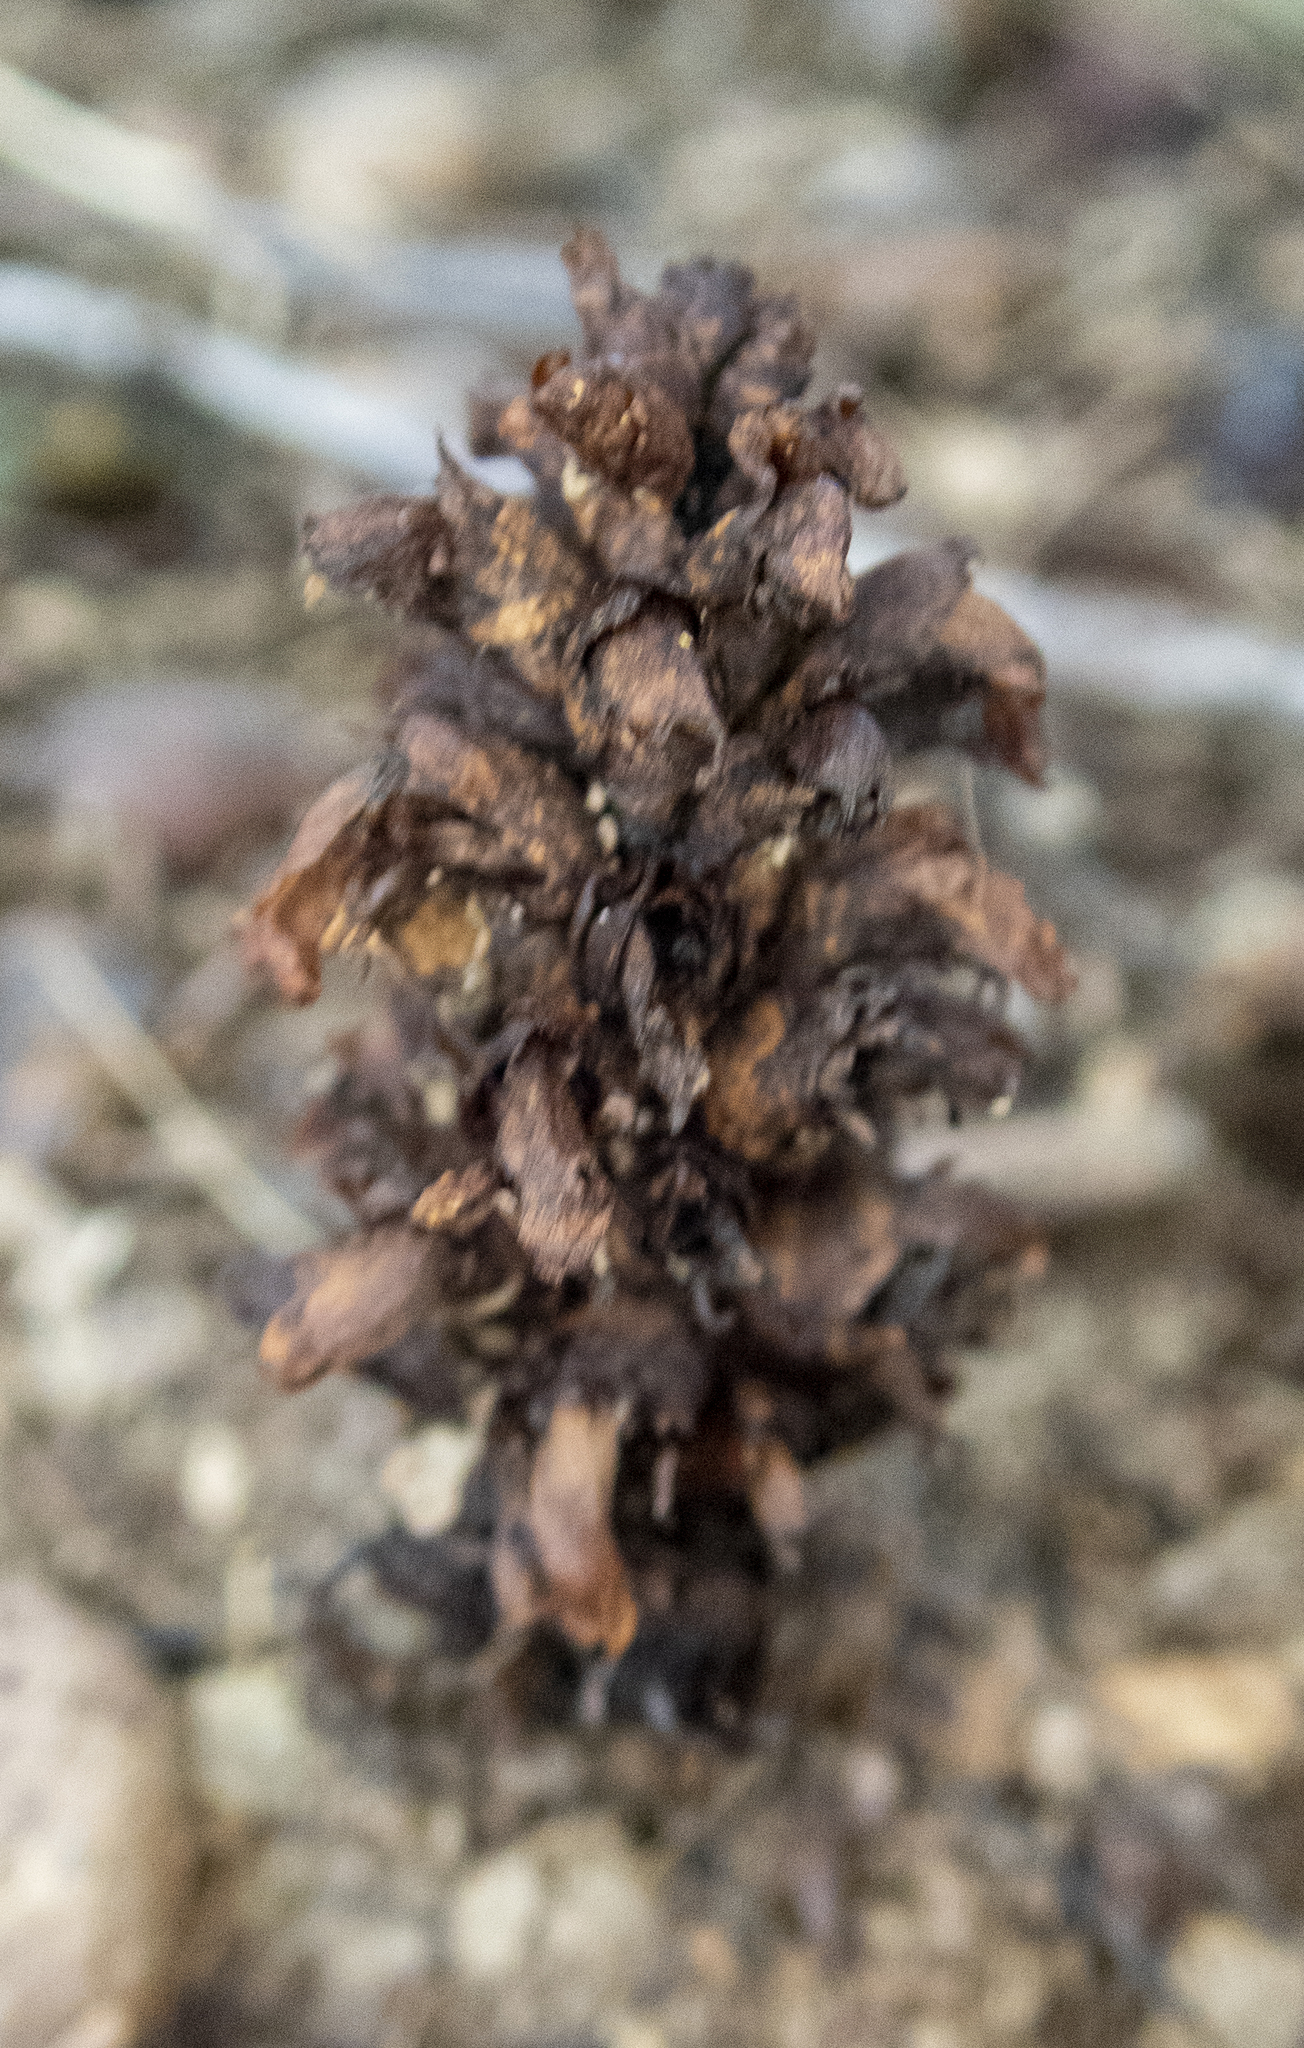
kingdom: Plantae
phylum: Tracheophyta
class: Magnoliopsida
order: Lamiales
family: Orobanchaceae
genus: Conopholis
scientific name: Conopholis americana
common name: American cancer-root
